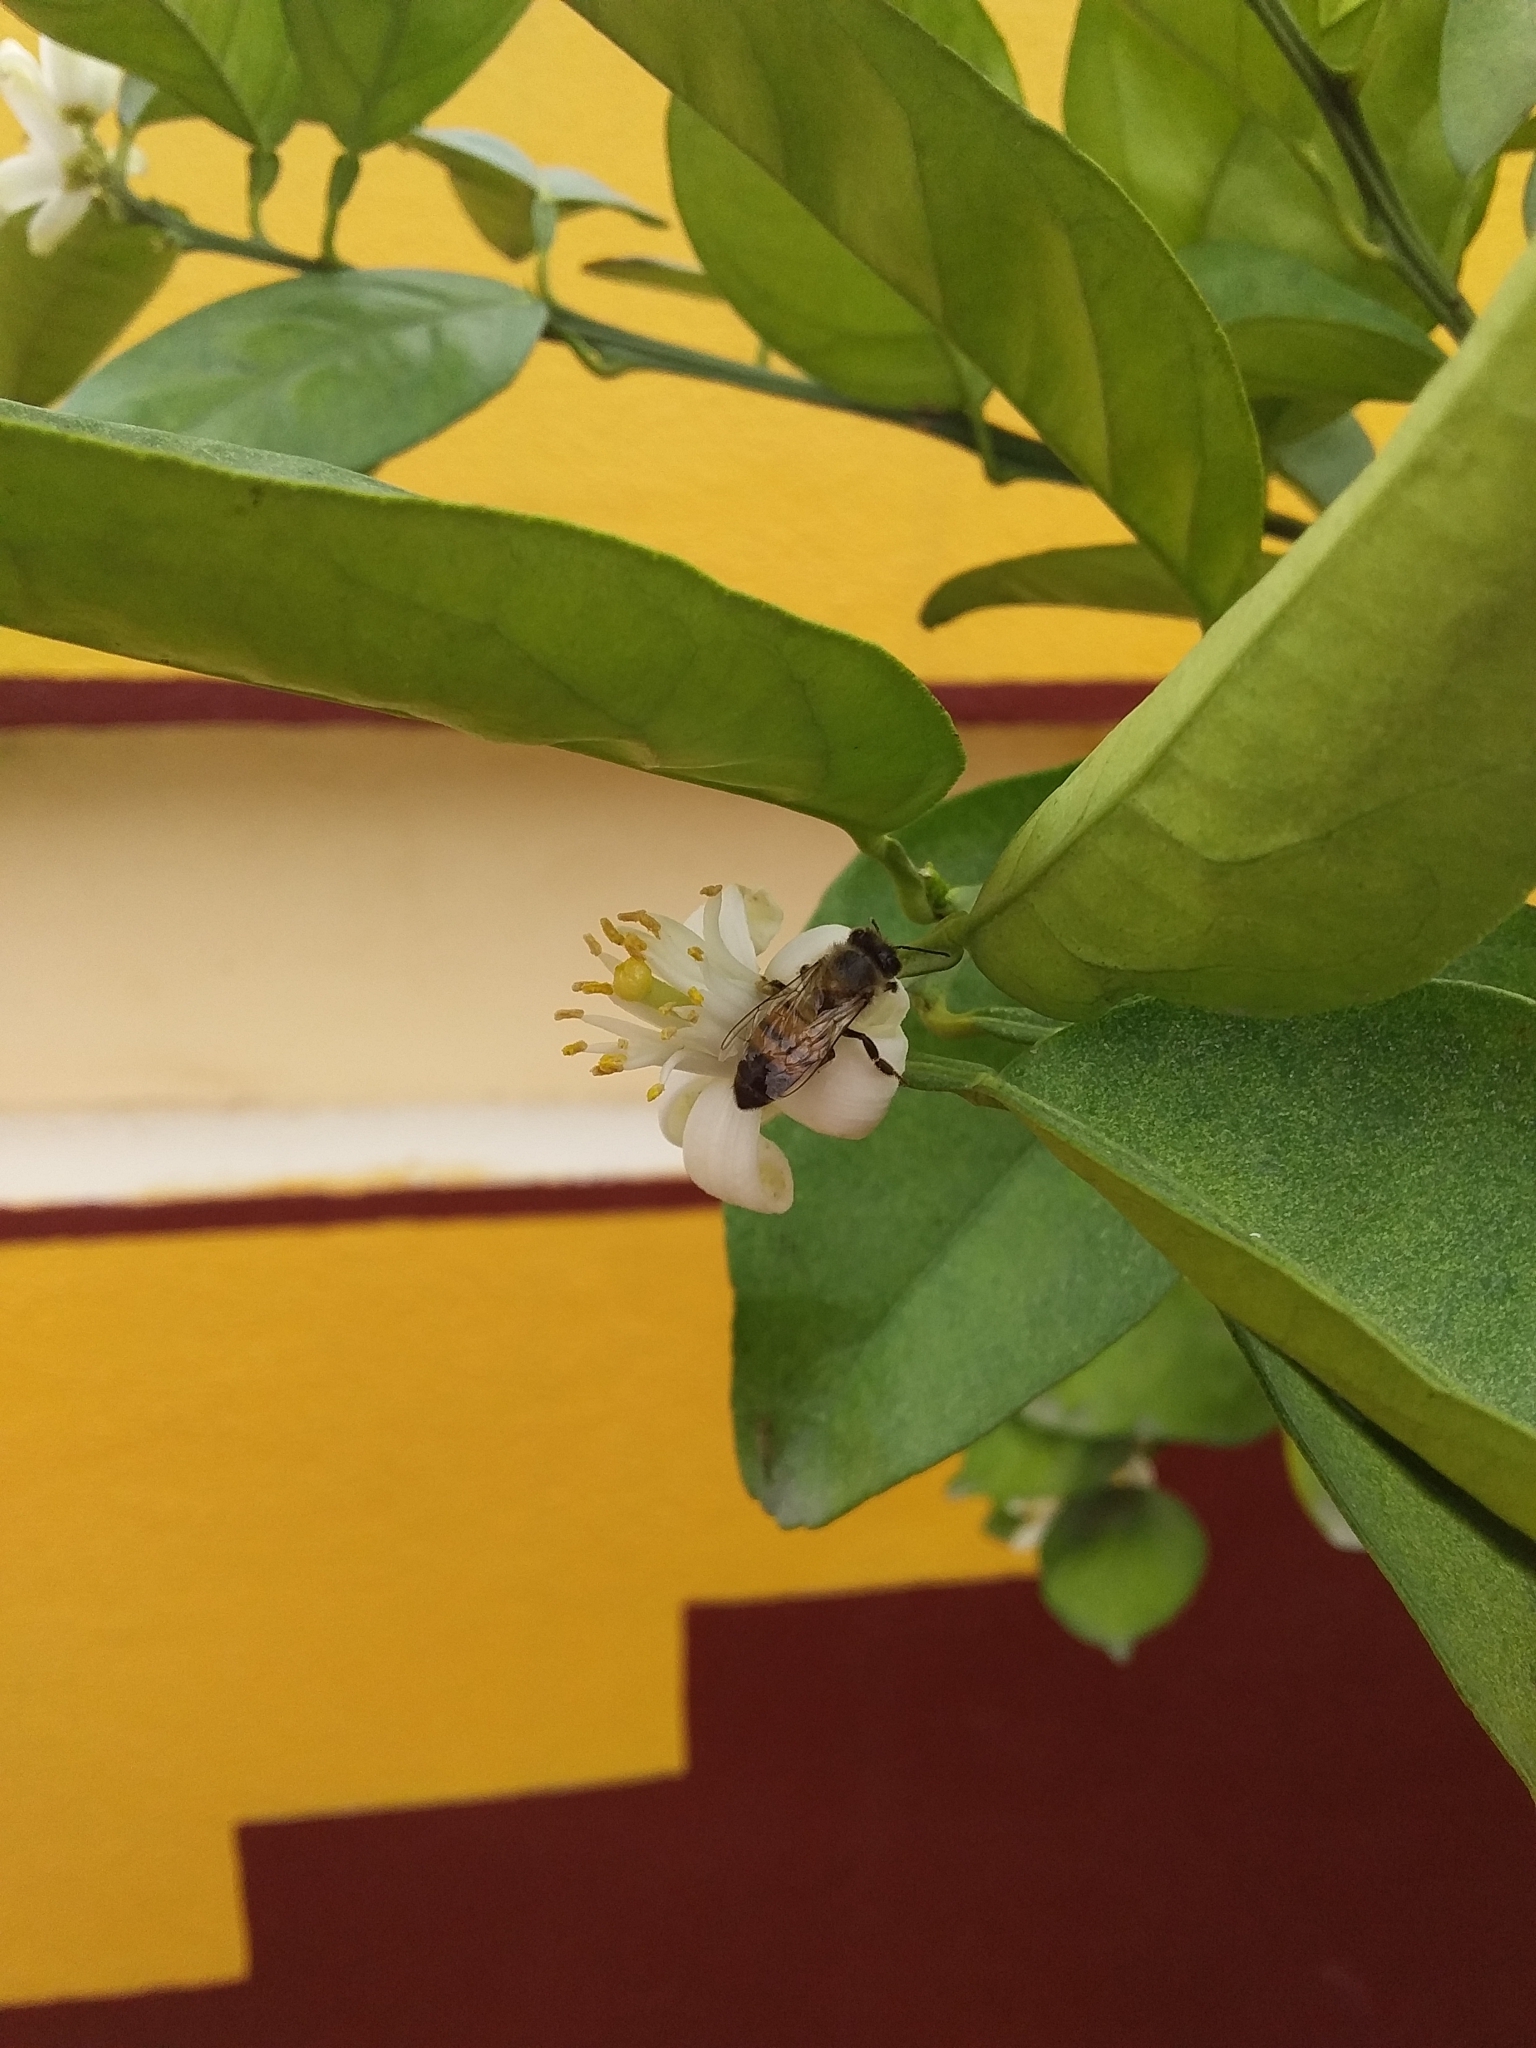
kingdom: Animalia
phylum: Arthropoda
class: Insecta
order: Hymenoptera
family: Apidae
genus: Apis
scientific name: Apis mellifera
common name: Honey bee
